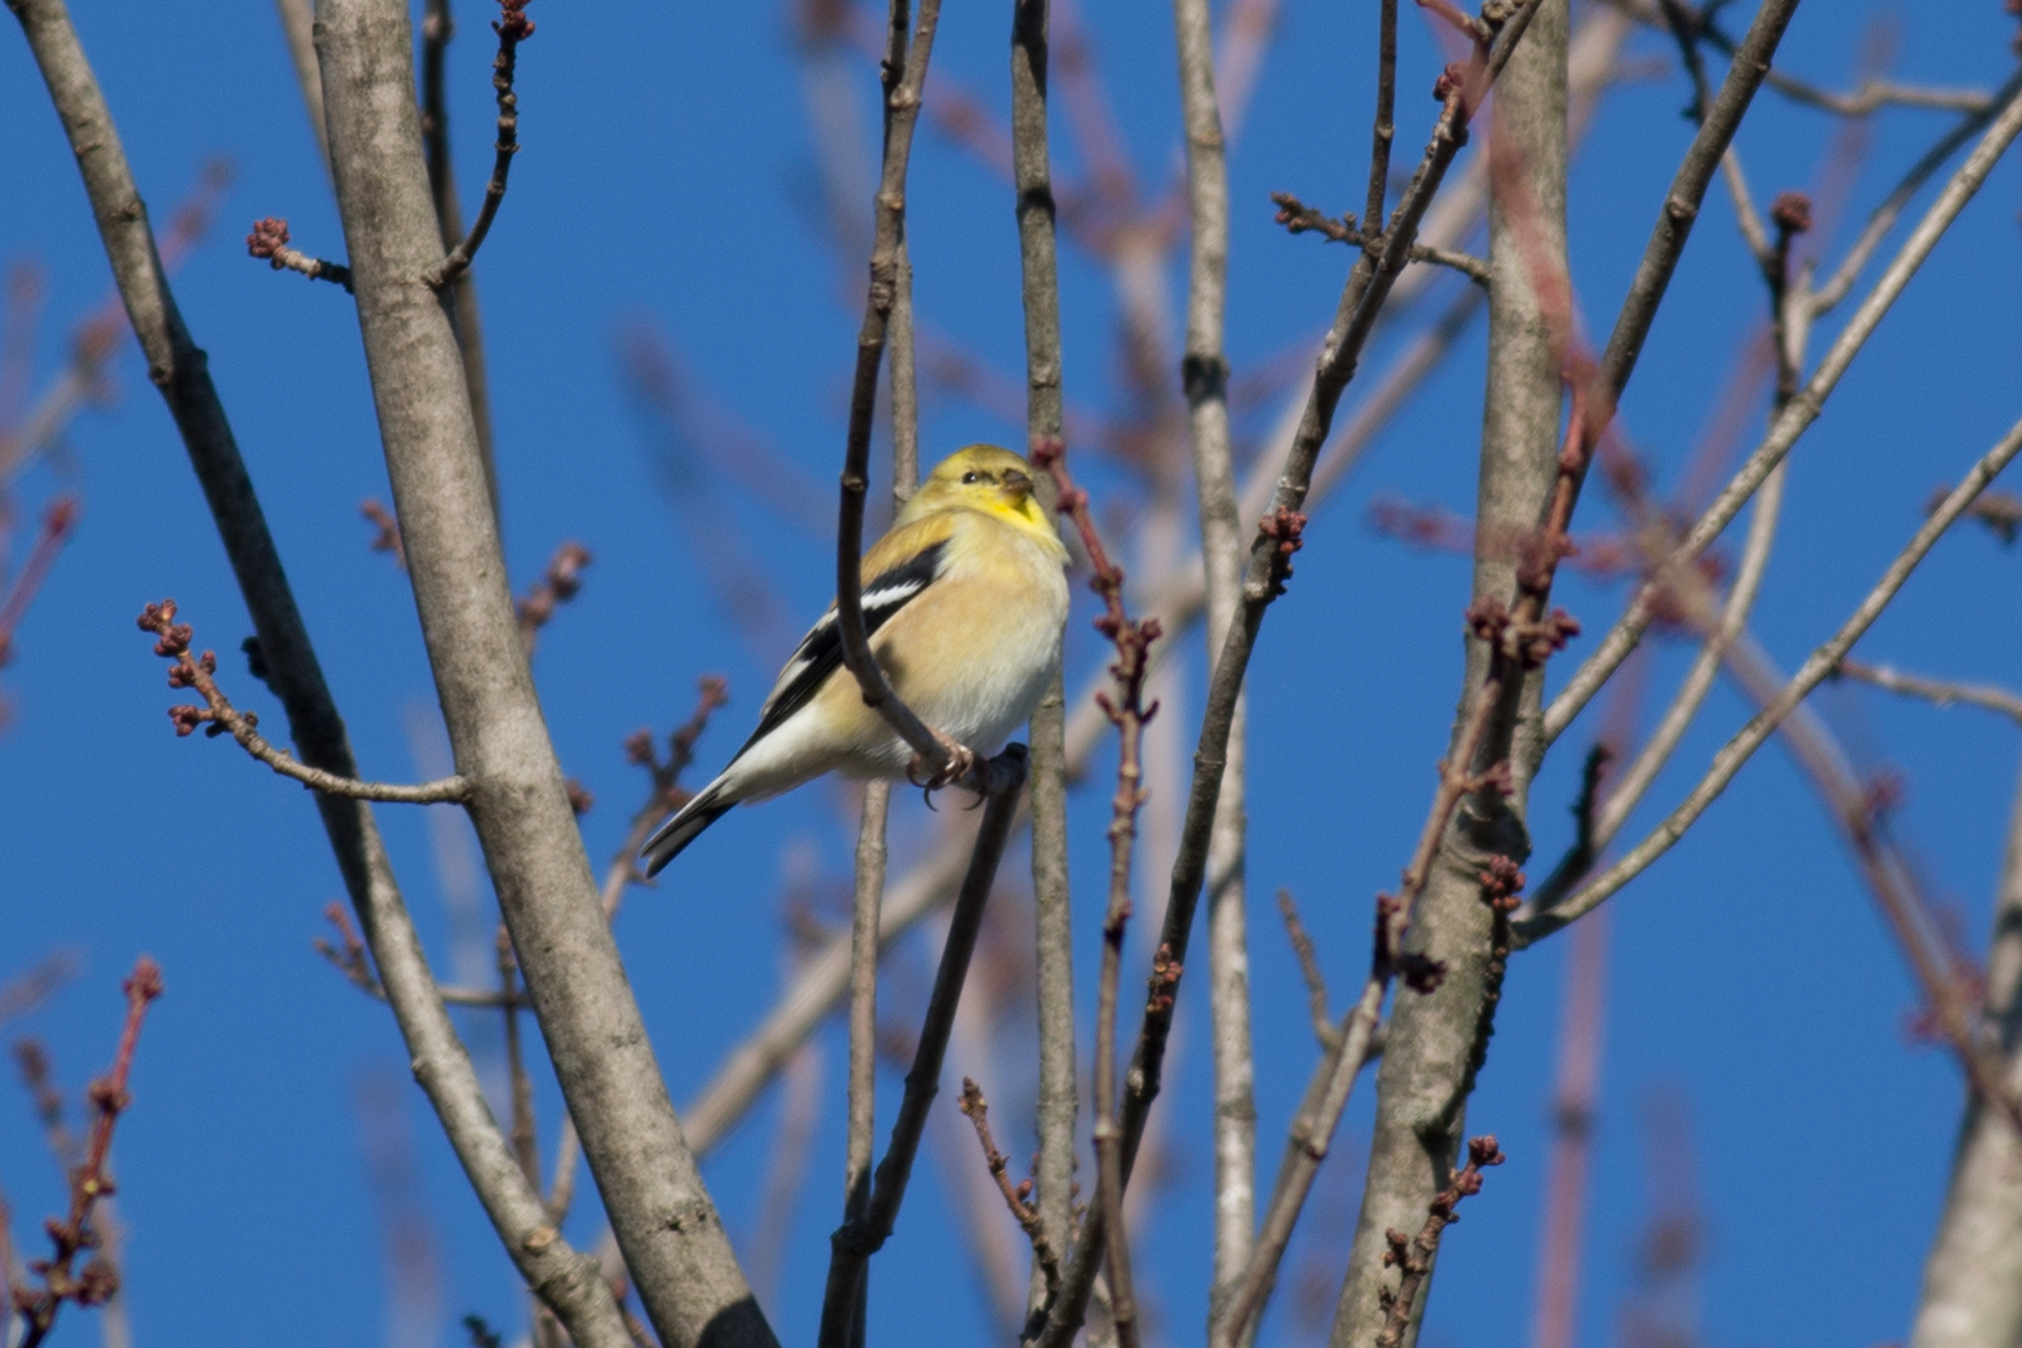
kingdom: Animalia
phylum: Chordata
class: Aves
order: Passeriformes
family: Fringillidae
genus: Spinus
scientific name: Spinus tristis
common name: American goldfinch
